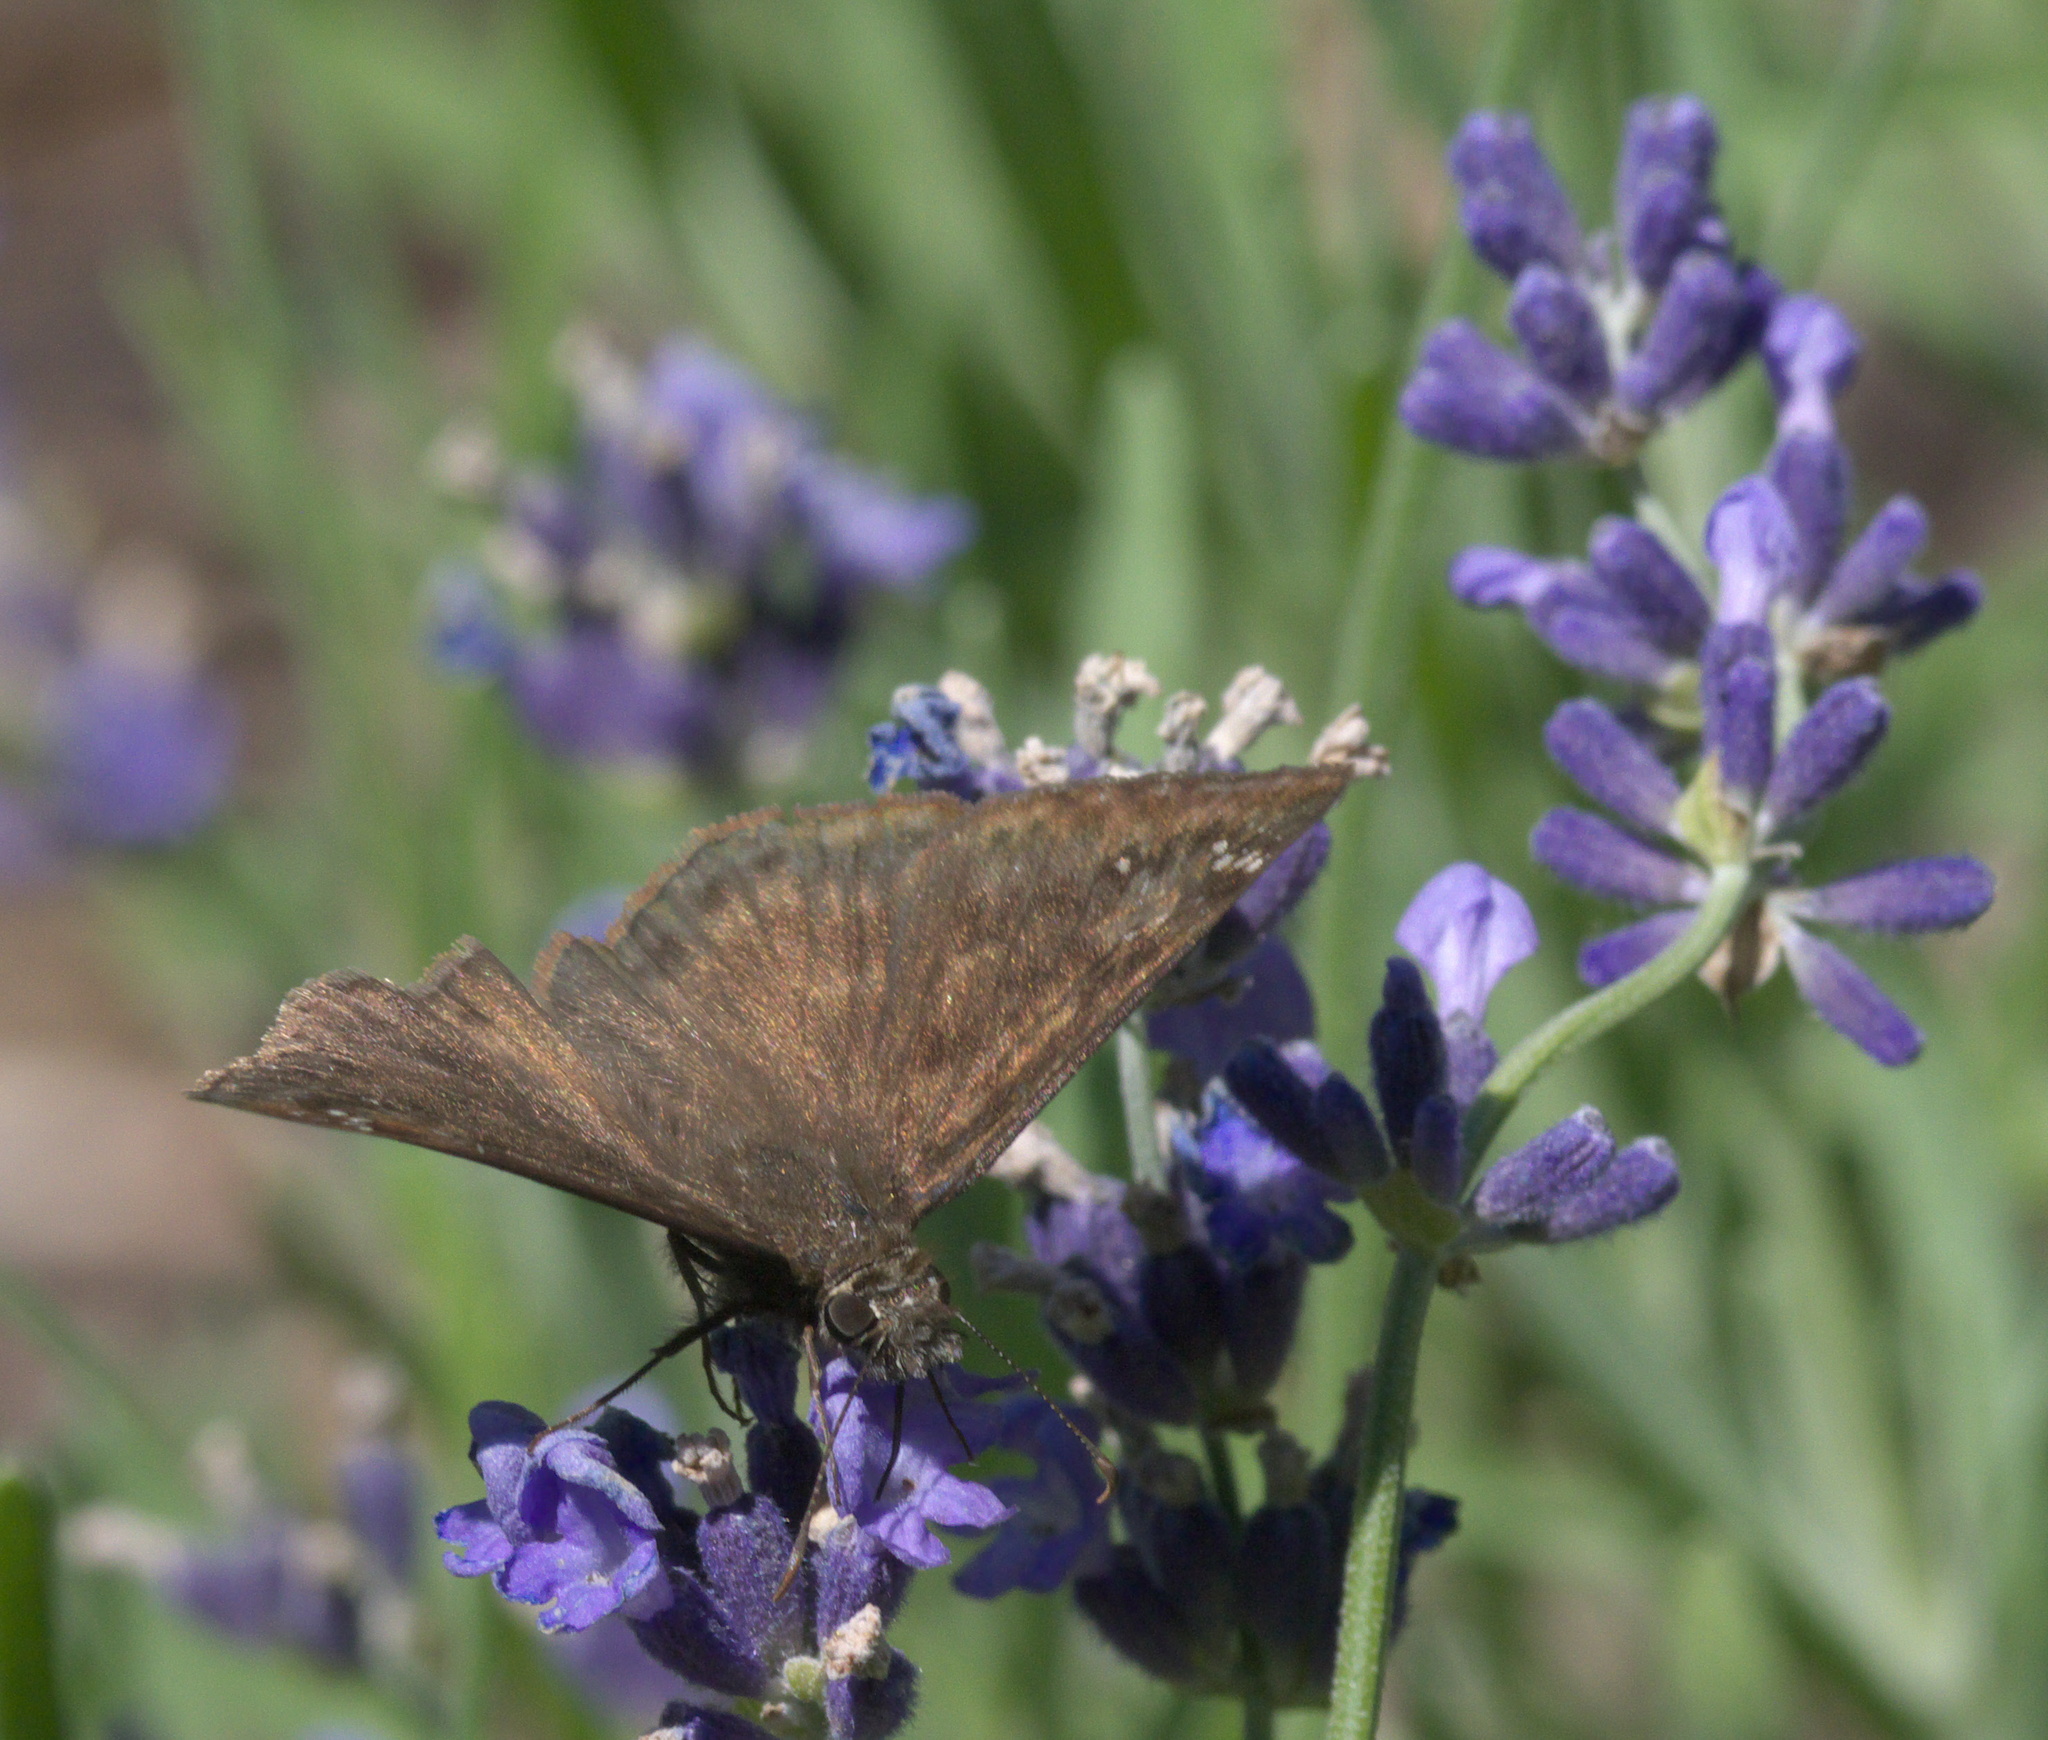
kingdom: Animalia
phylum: Arthropoda
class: Insecta
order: Lepidoptera
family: Hesperiidae
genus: Erynnis
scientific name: Erynnis horatius
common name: Horace's duskywing
